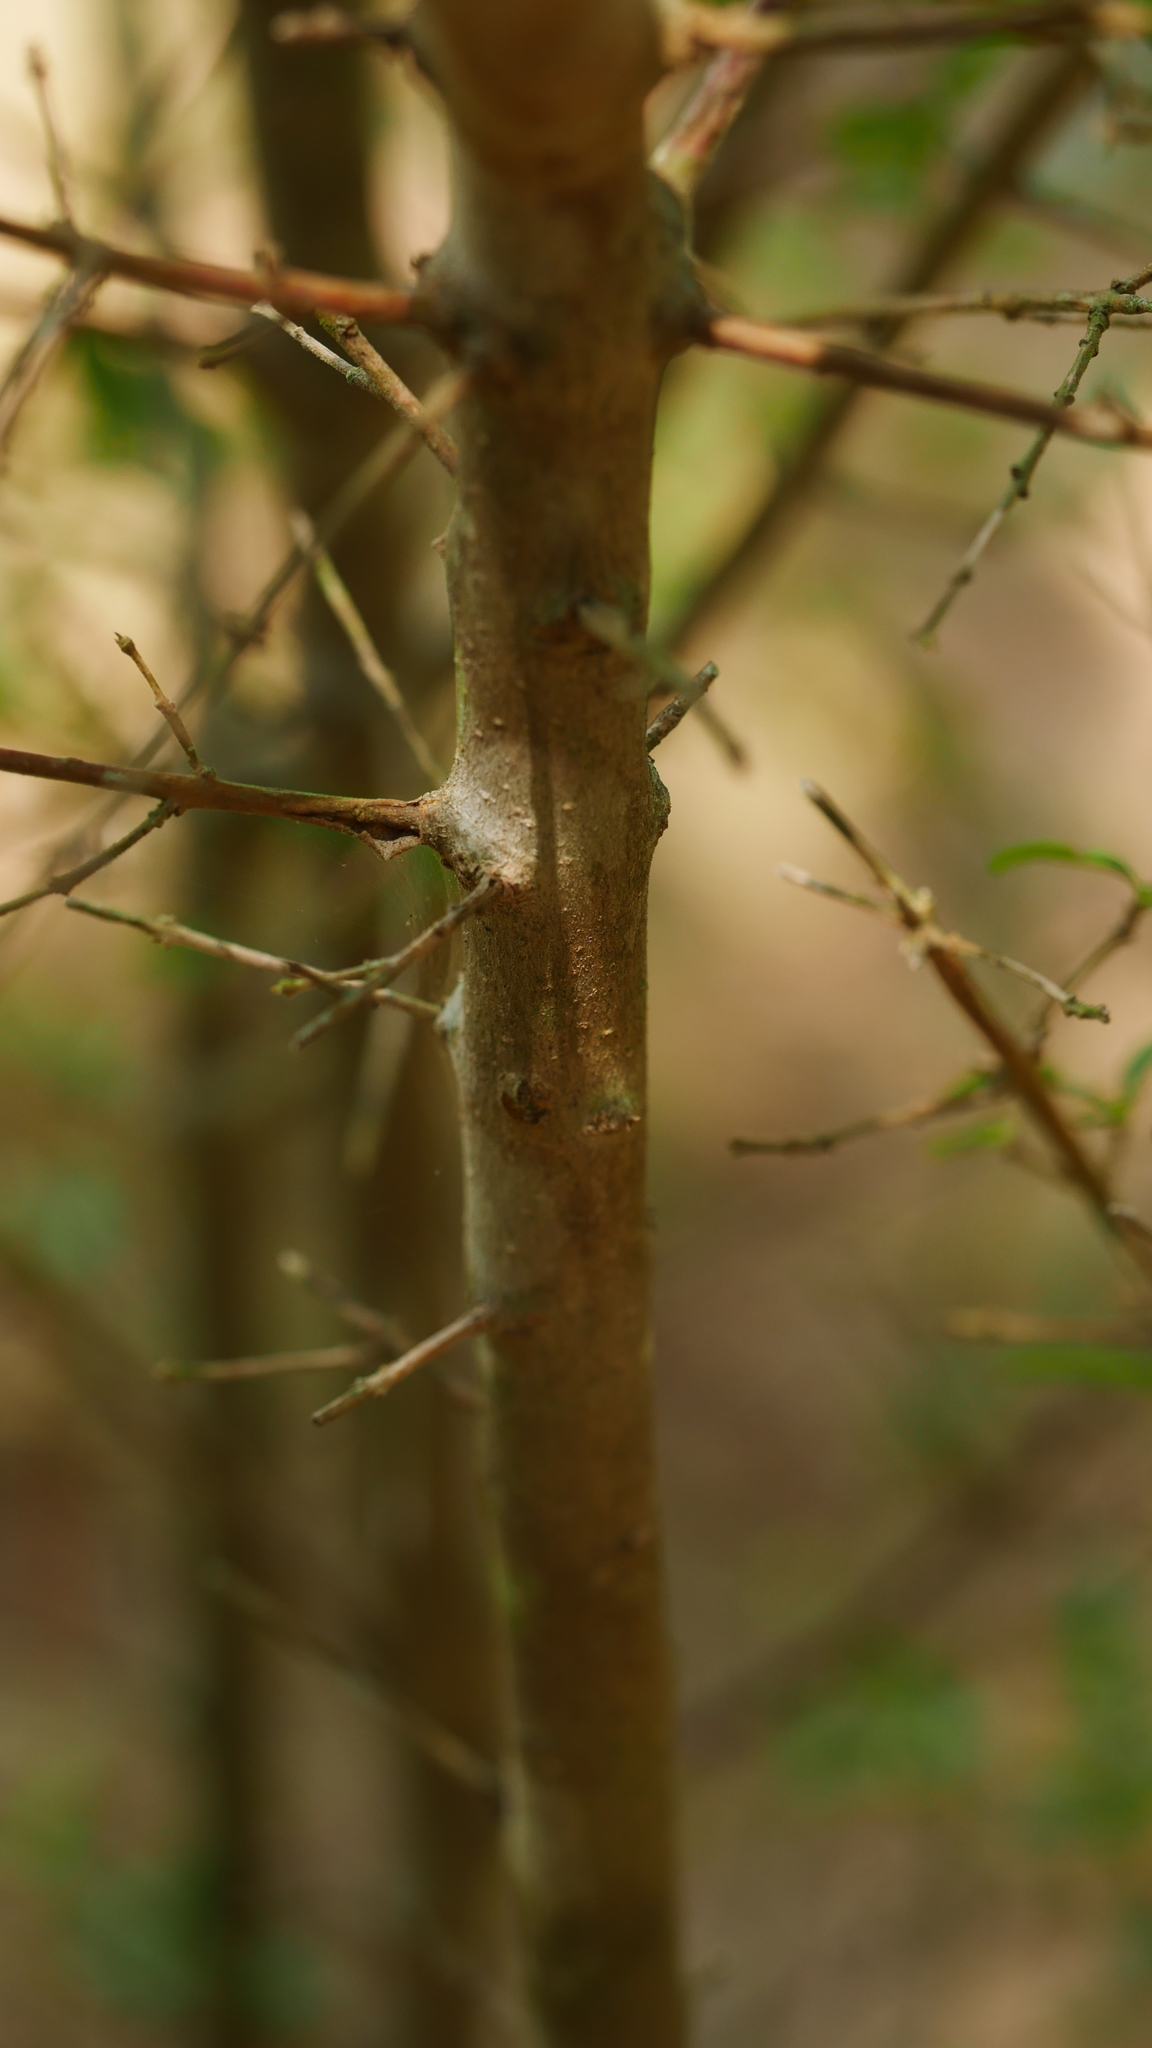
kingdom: Plantae
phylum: Tracheophyta
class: Magnoliopsida
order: Lamiales
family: Oleaceae
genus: Ligustrum
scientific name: Ligustrum sinense
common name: Chinese privet
